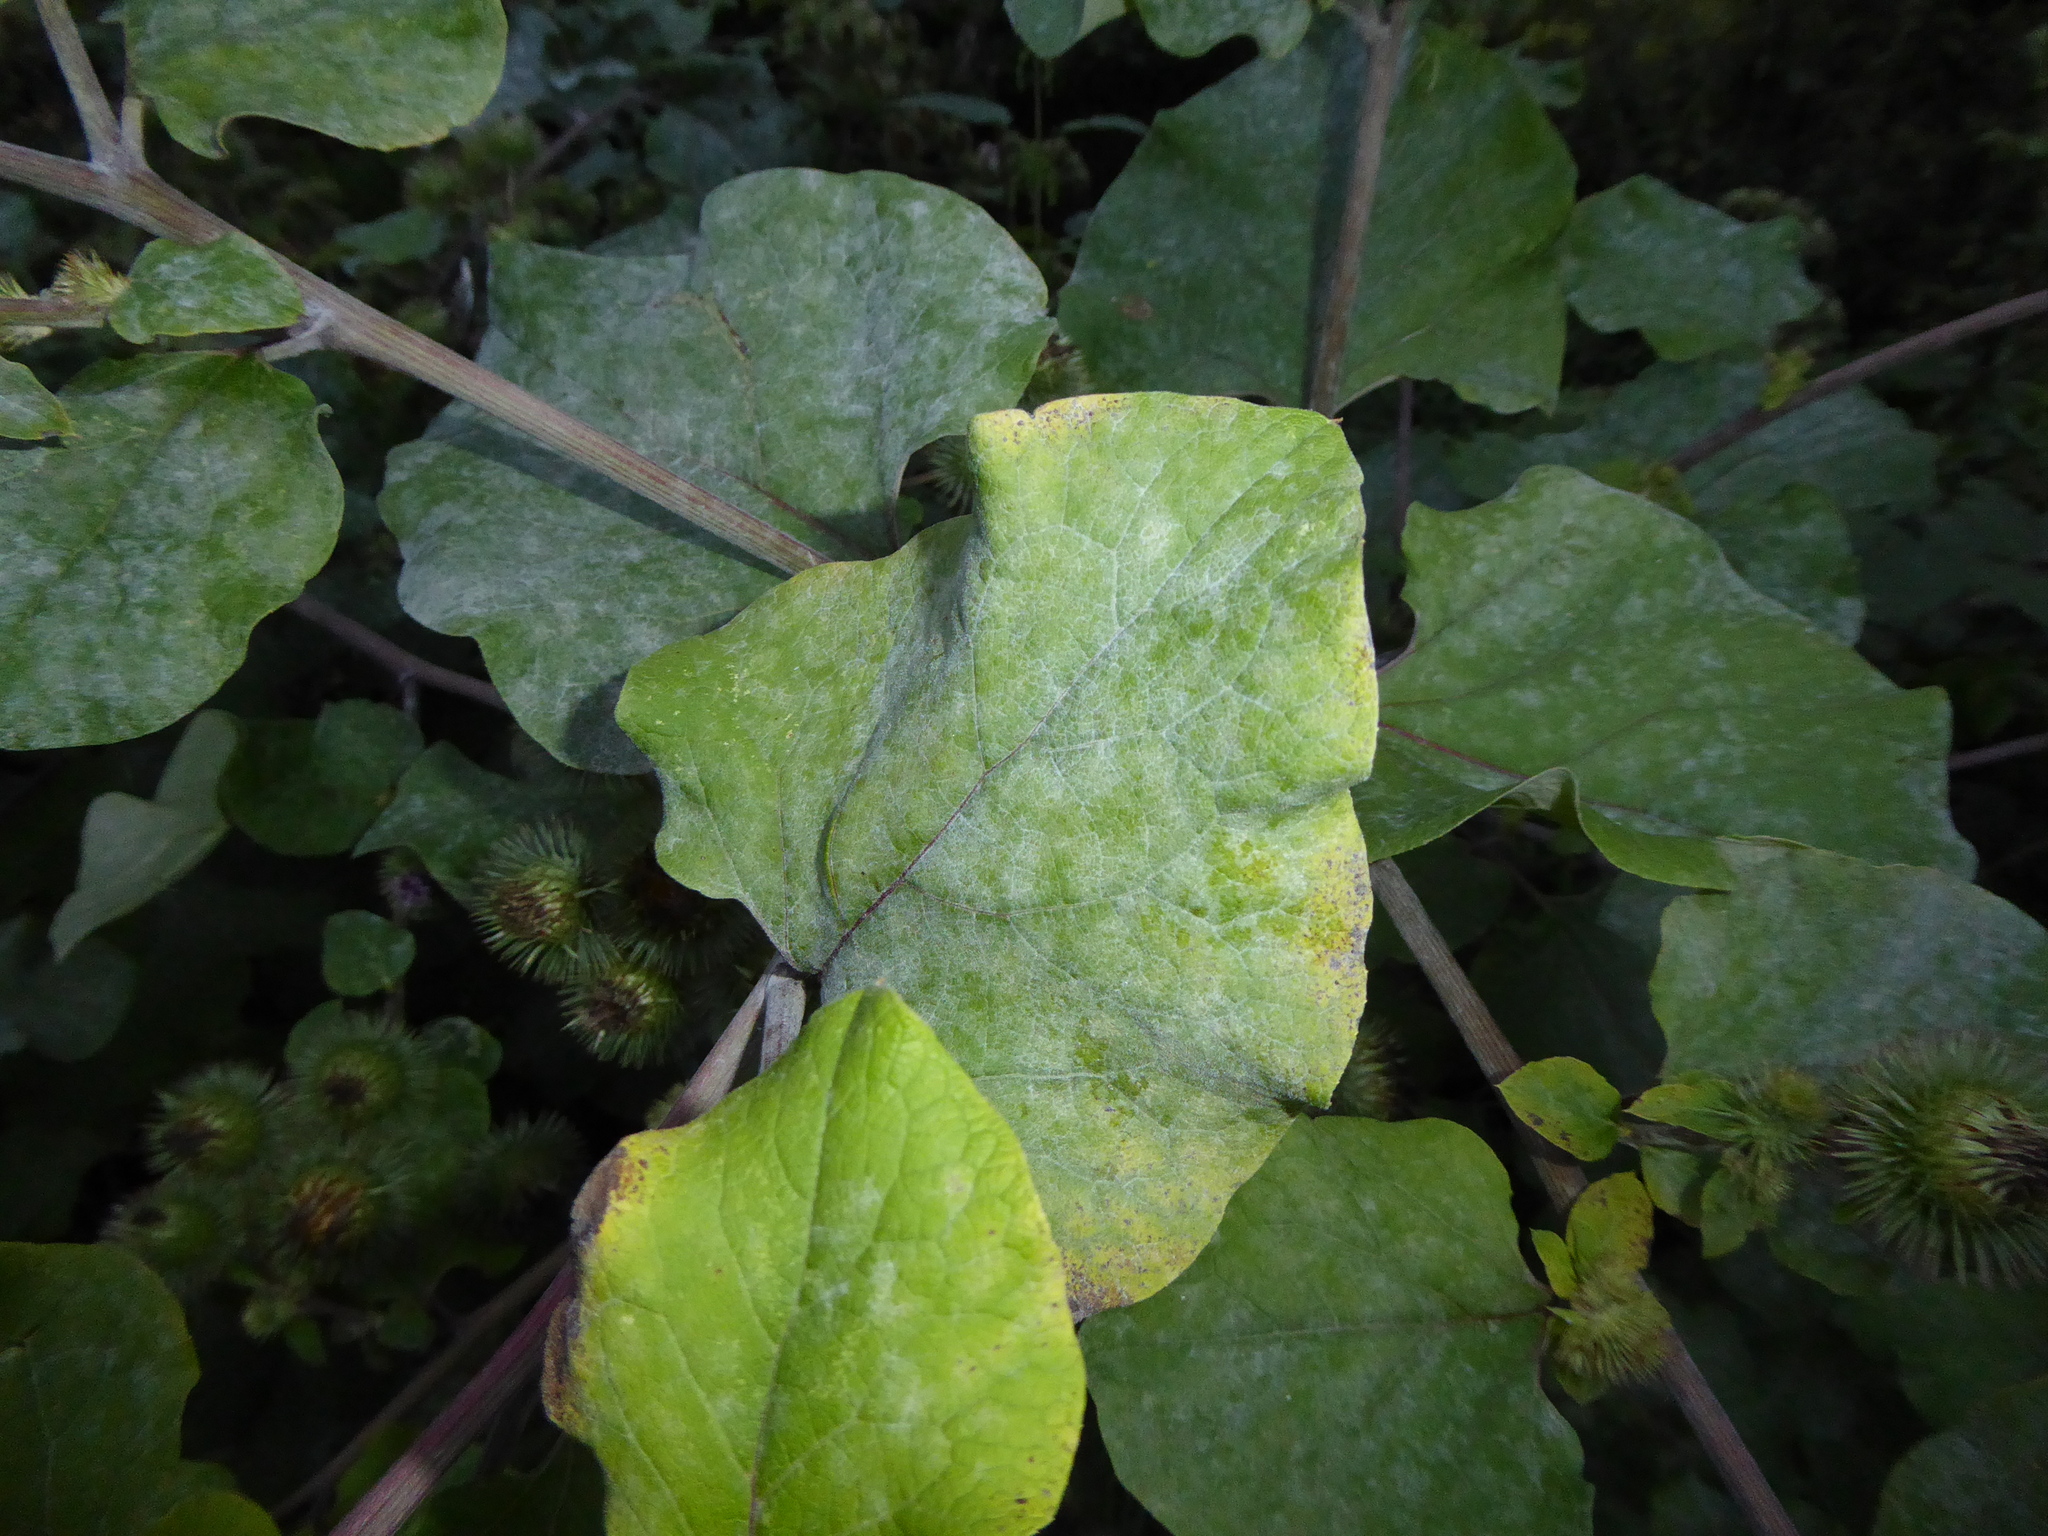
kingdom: Fungi
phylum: Ascomycota
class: Leotiomycetes
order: Helotiales
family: Erysiphaceae
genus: Golovinomyces
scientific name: Golovinomyces depressus
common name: Burdock mildew
